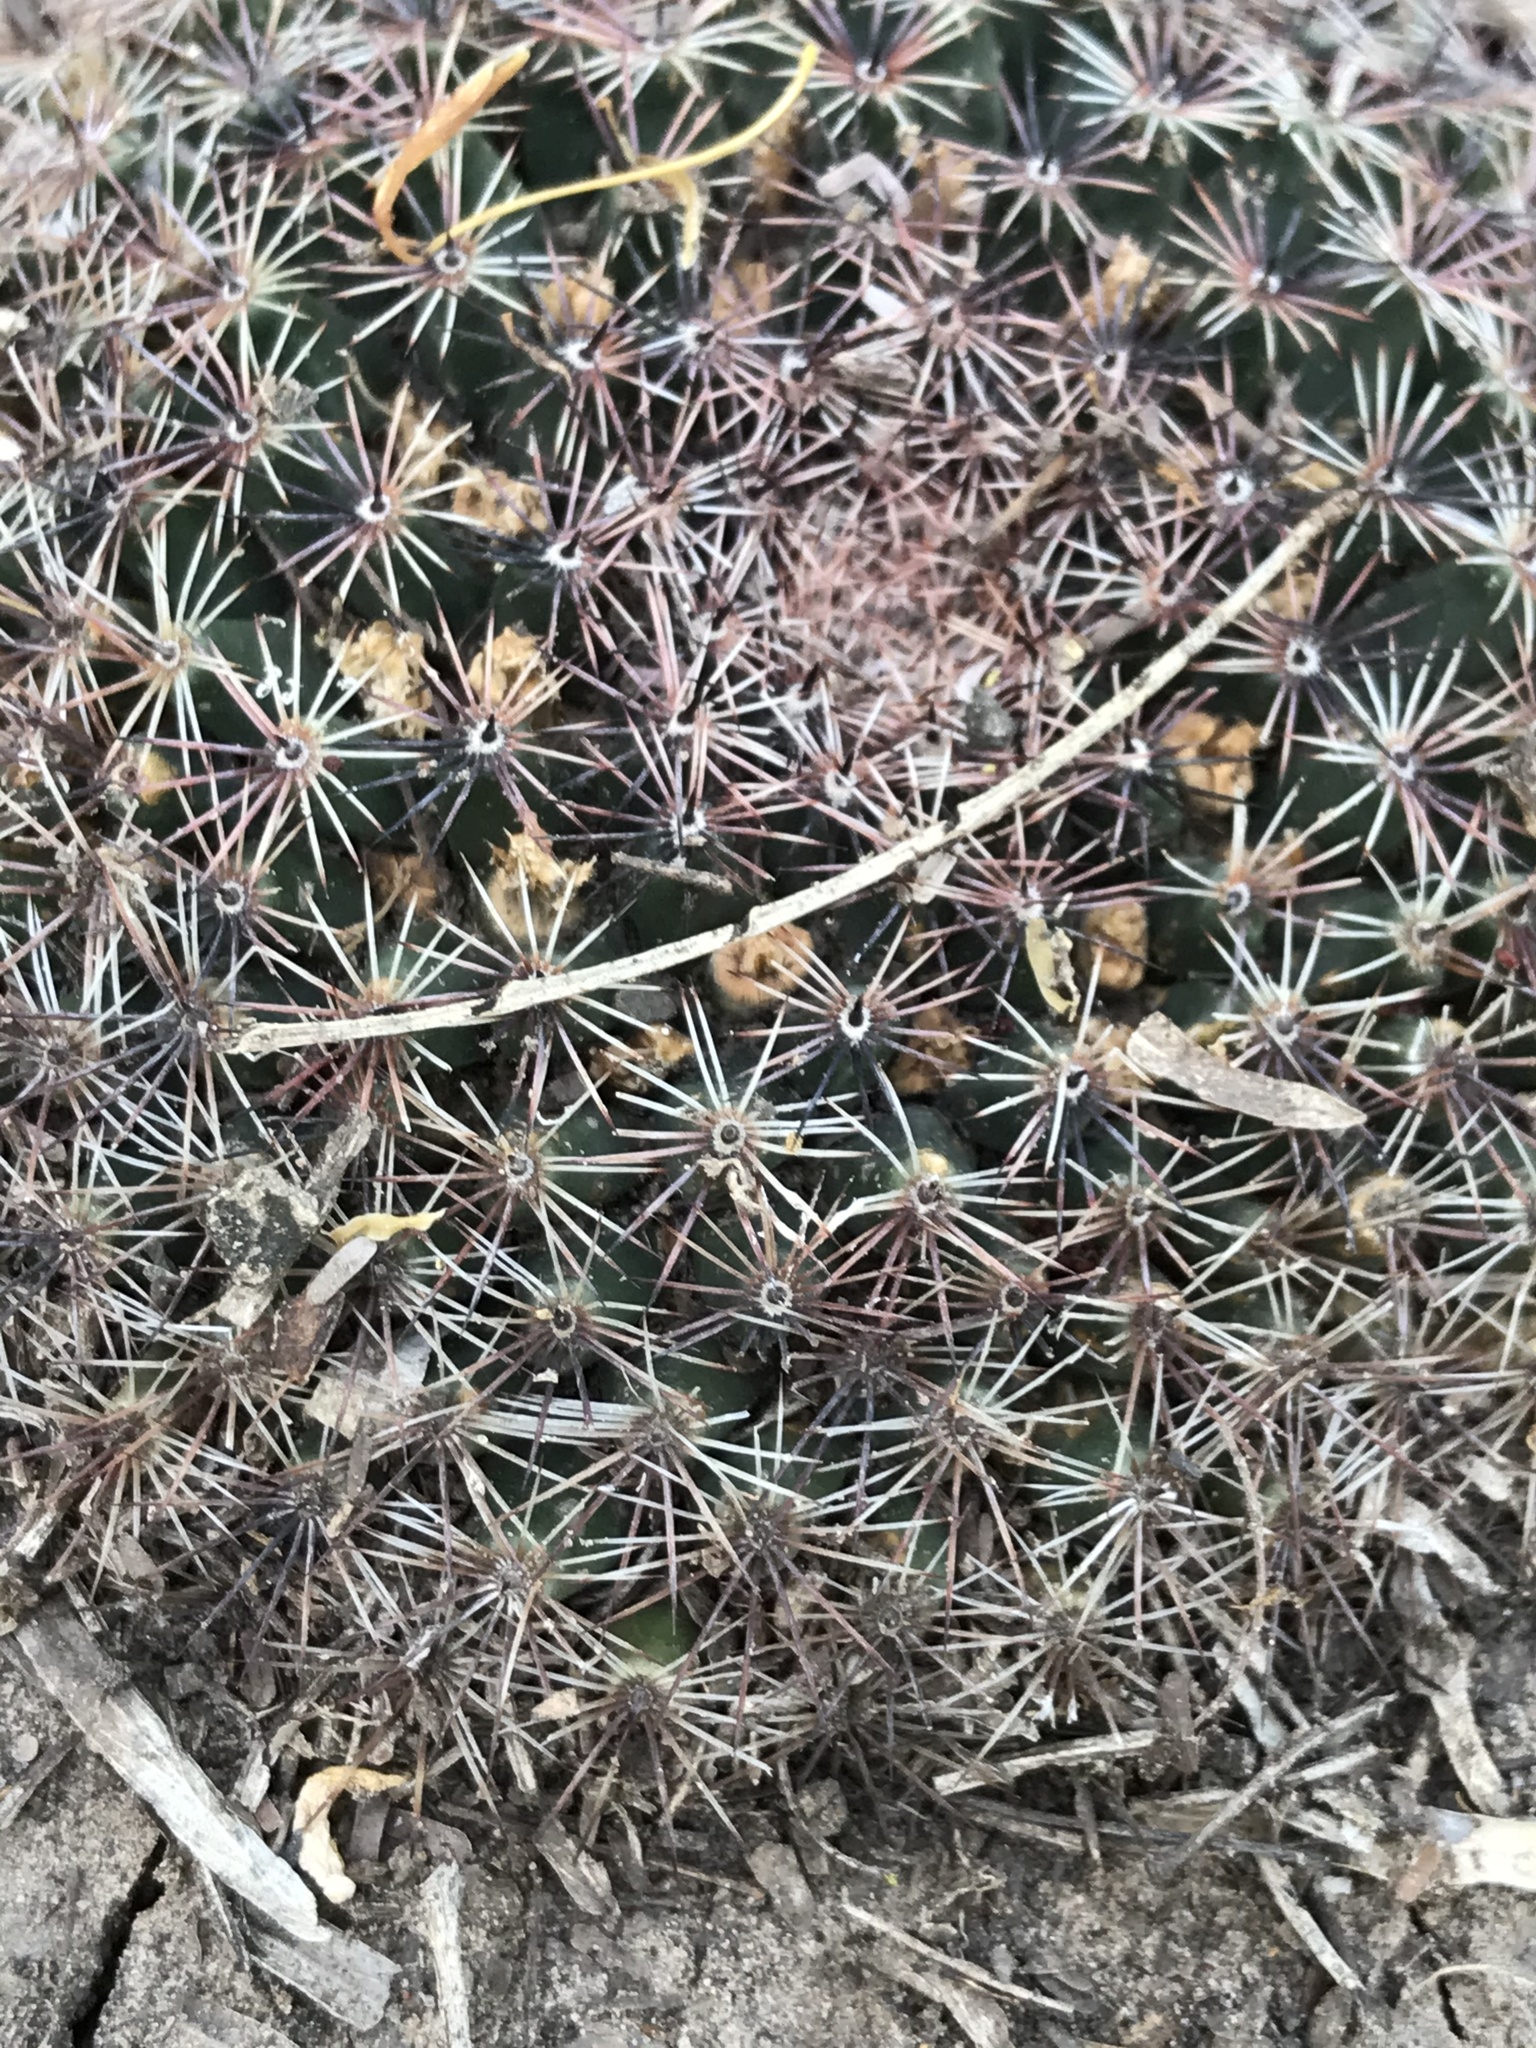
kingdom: Plantae
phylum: Tracheophyta
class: Magnoliopsida
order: Caryophyllales
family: Cactaceae
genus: Mammillaria
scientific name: Mammillaria heyderi
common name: Little nipple cactus
